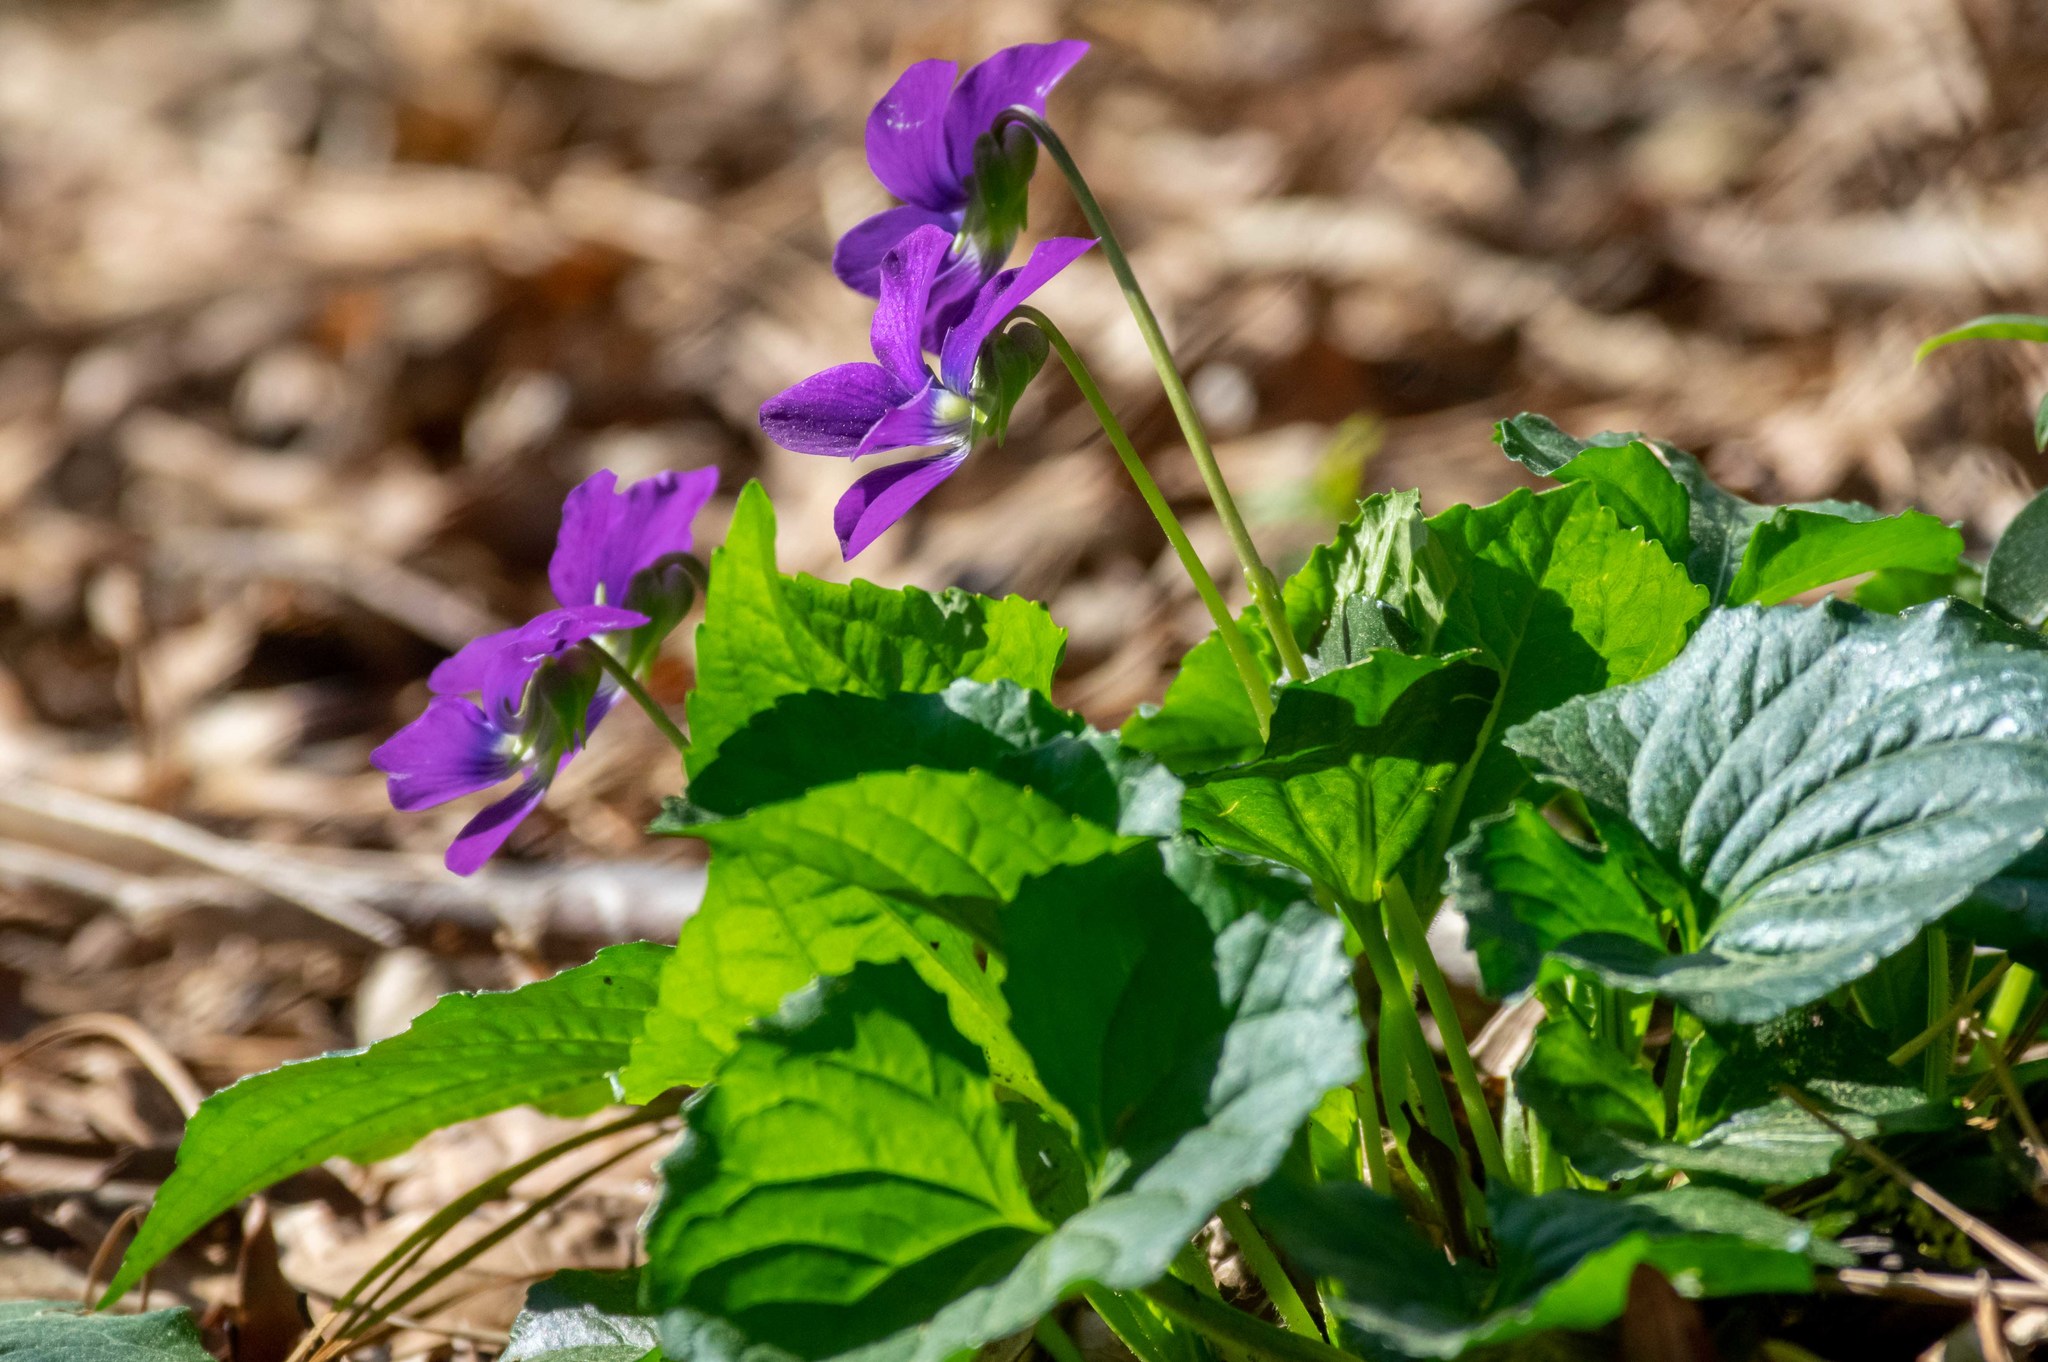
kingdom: Plantae
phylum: Tracheophyta
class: Magnoliopsida
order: Malpighiales
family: Violaceae
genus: Viola
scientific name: Viola sororia
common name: Dooryard violet
